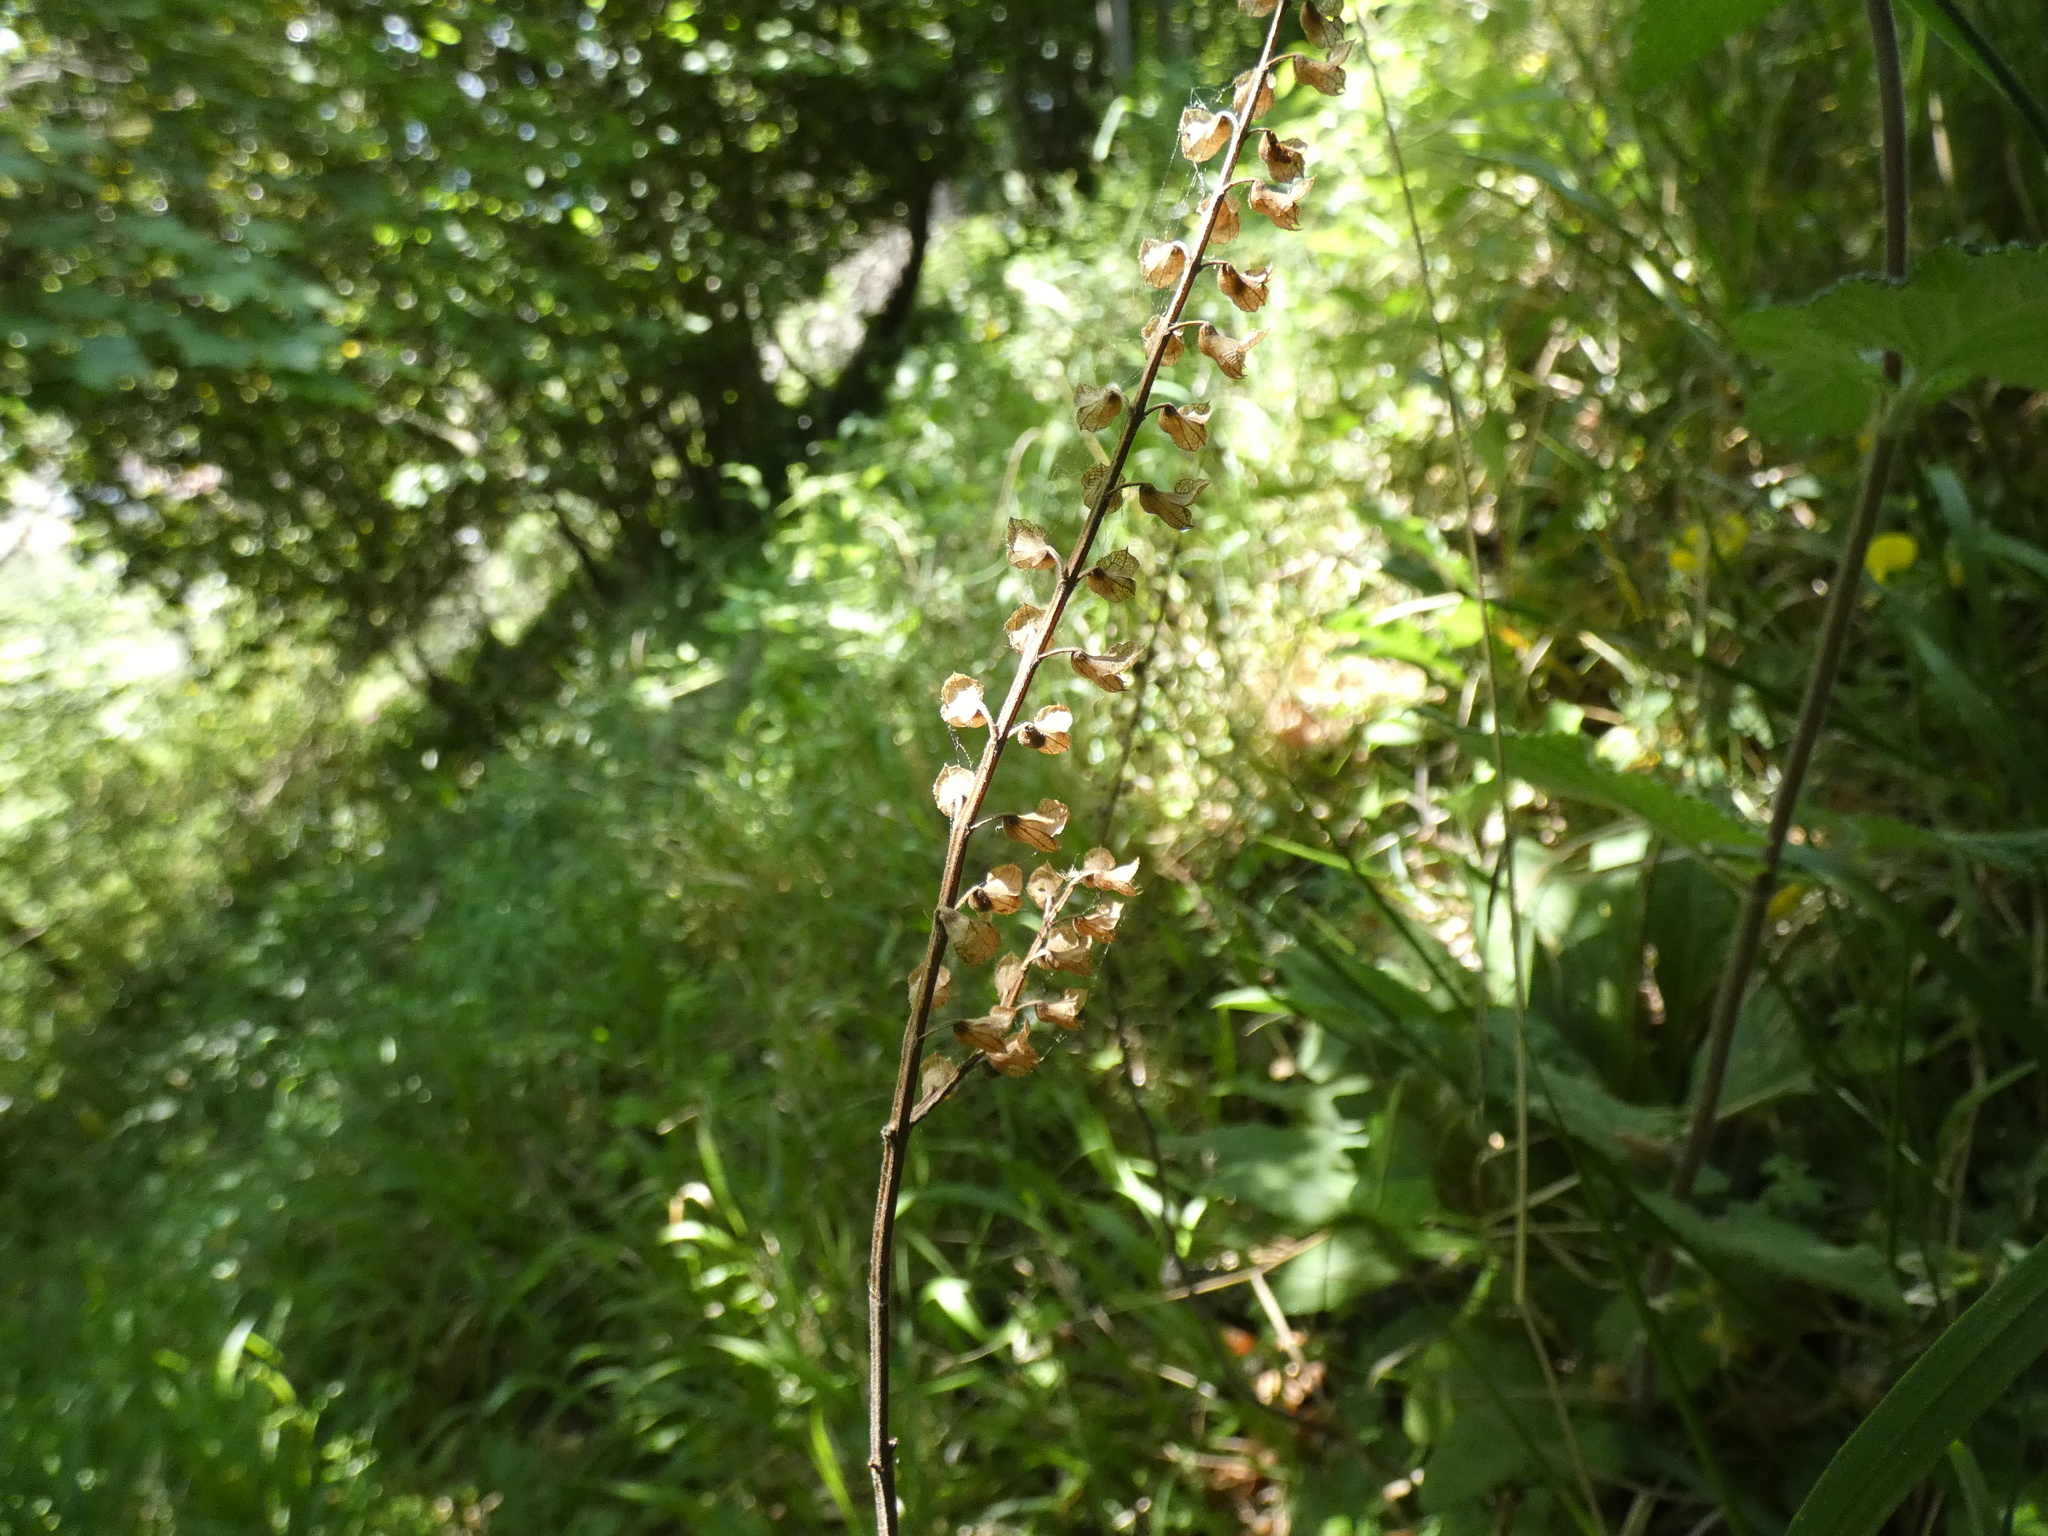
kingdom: Plantae
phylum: Tracheophyta
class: Magnoliopsida
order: Lamiales
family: Lamiaceae
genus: Teucrium
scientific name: Teucrium scorodonia
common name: Woodland germander
